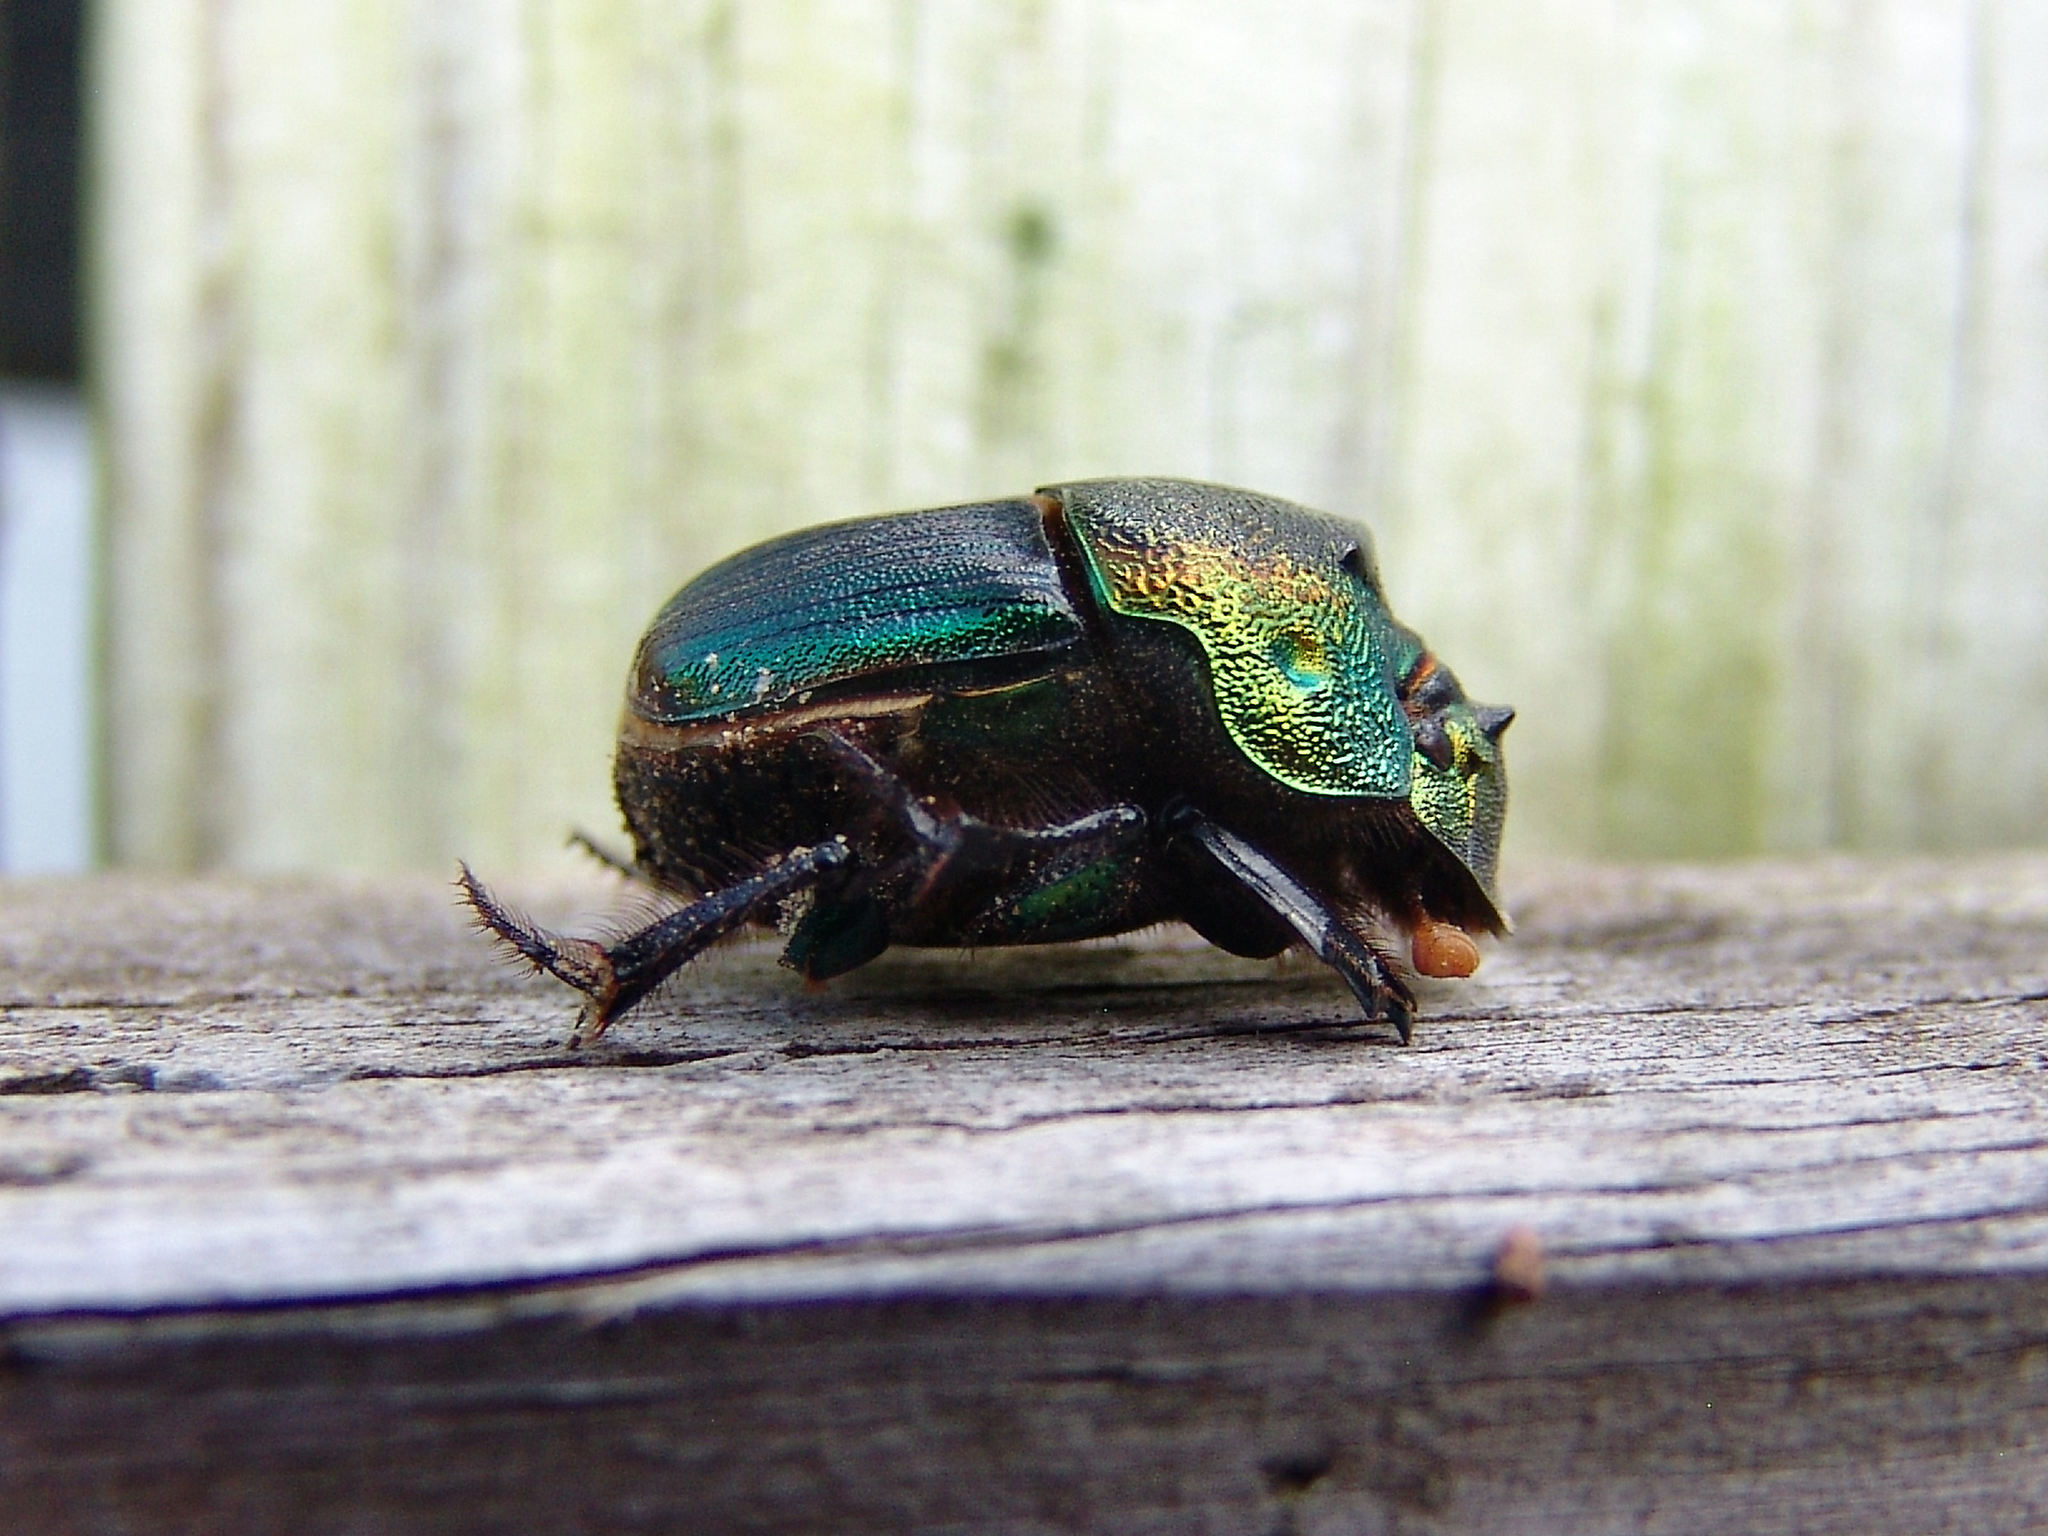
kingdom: Animalia
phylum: Arthropoda
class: Insecta
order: Coleoptera
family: Scarabaeidae
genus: Phanaeus
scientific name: Phanaeus vindex
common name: Rainbow scarab
